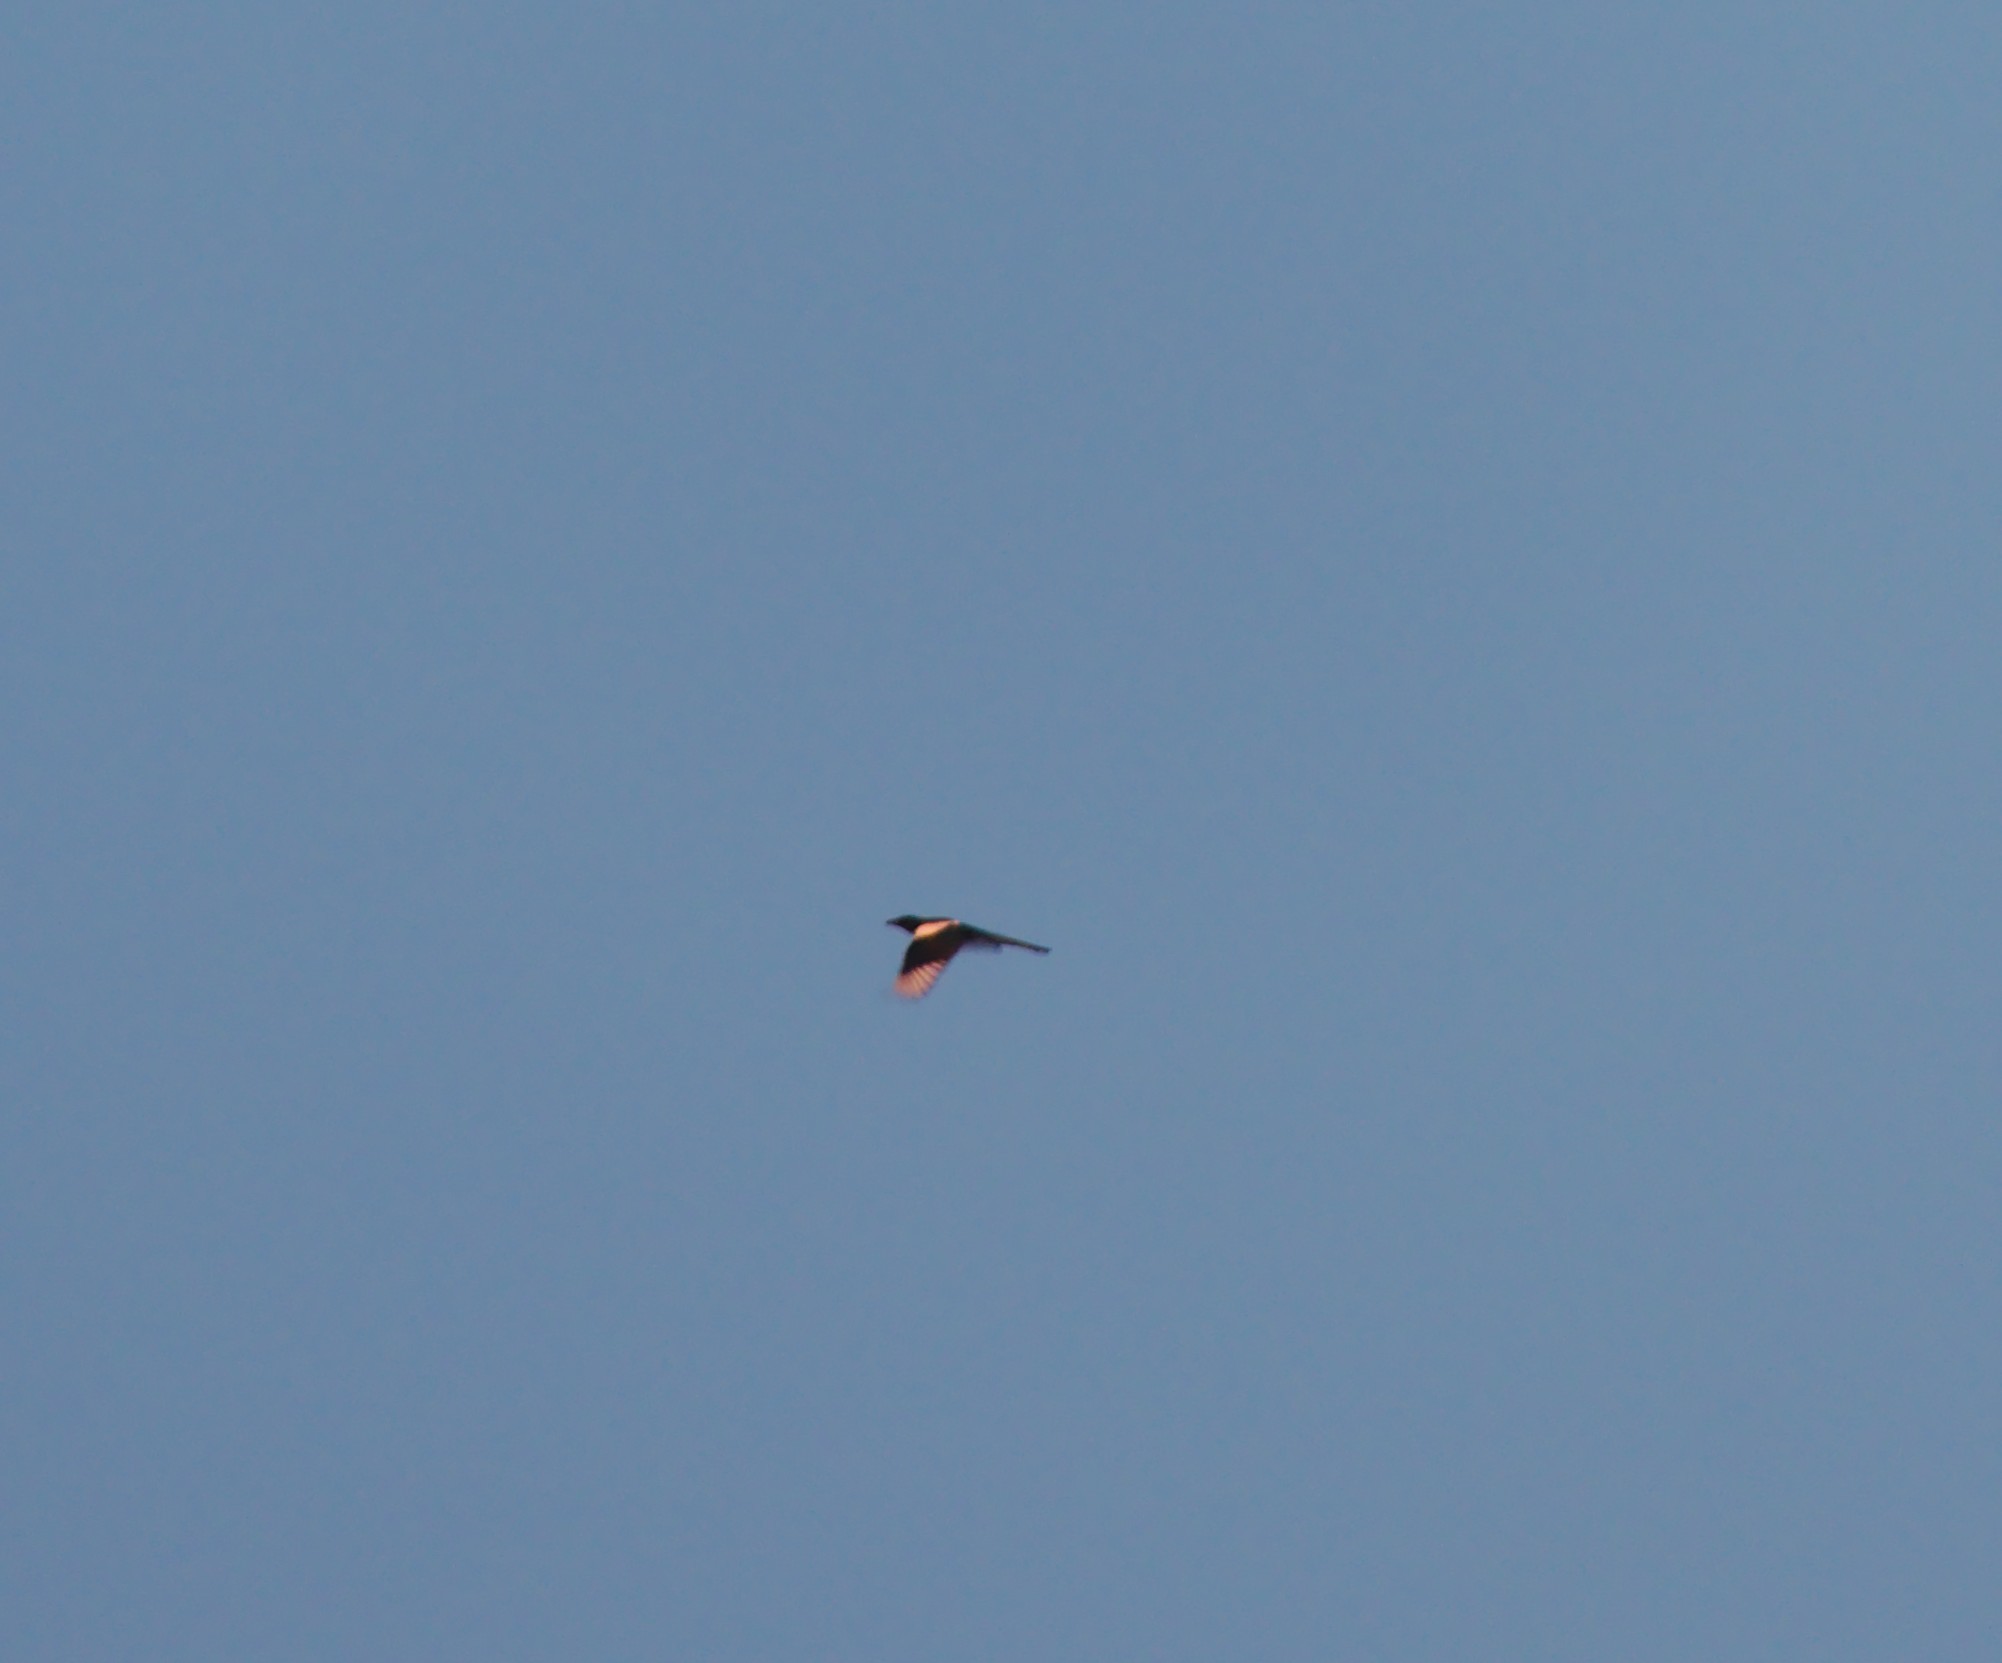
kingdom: Animalia
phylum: Chordata
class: Aves
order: Passeriformes
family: Corvidae
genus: Pica
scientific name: Pica pica
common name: Eurasian magpie
